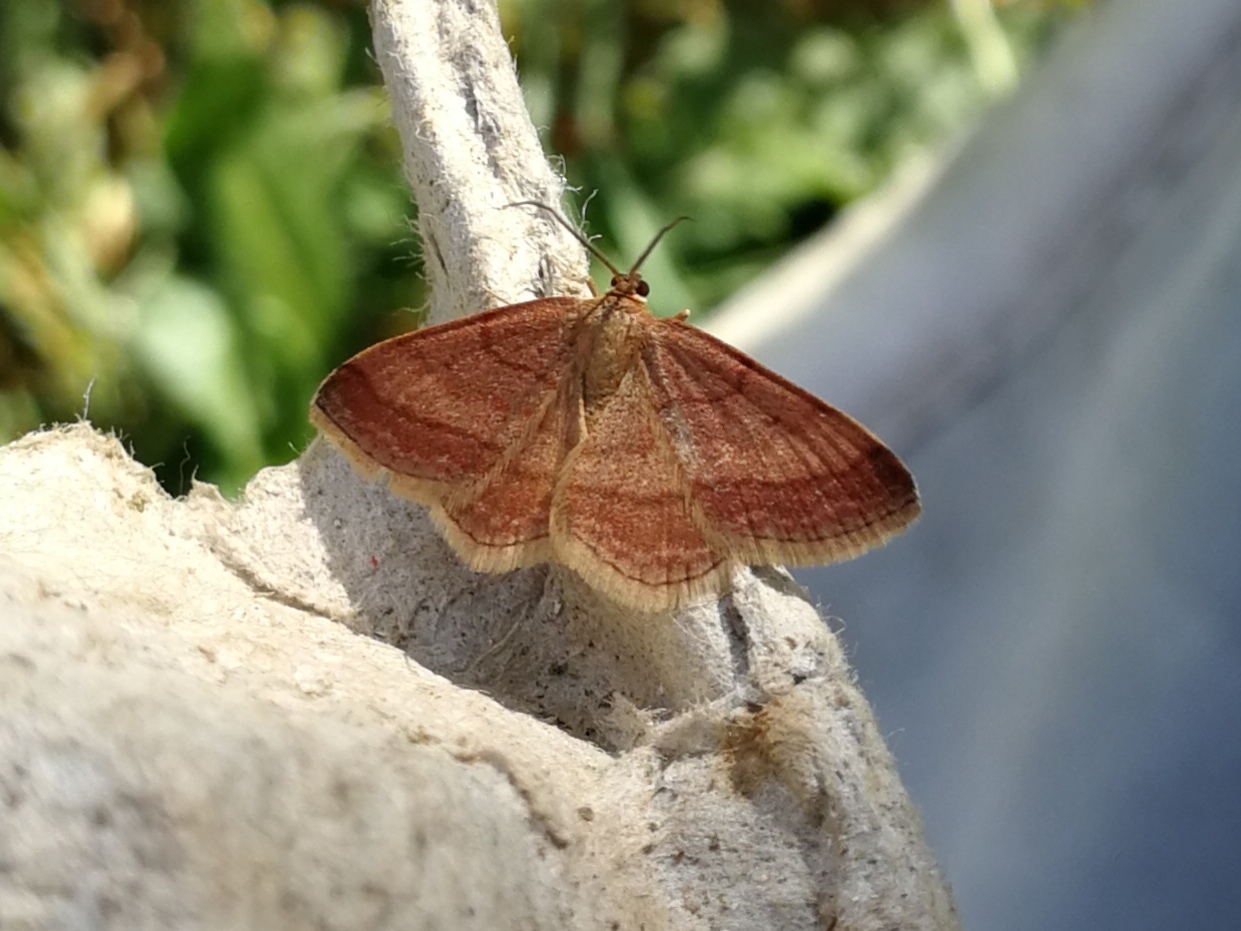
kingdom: Animalia
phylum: Arthropoda
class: Insecta
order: Lepidoptera
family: Geometridae
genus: Scopula
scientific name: Scopula rubiginata
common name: Tawny wave
